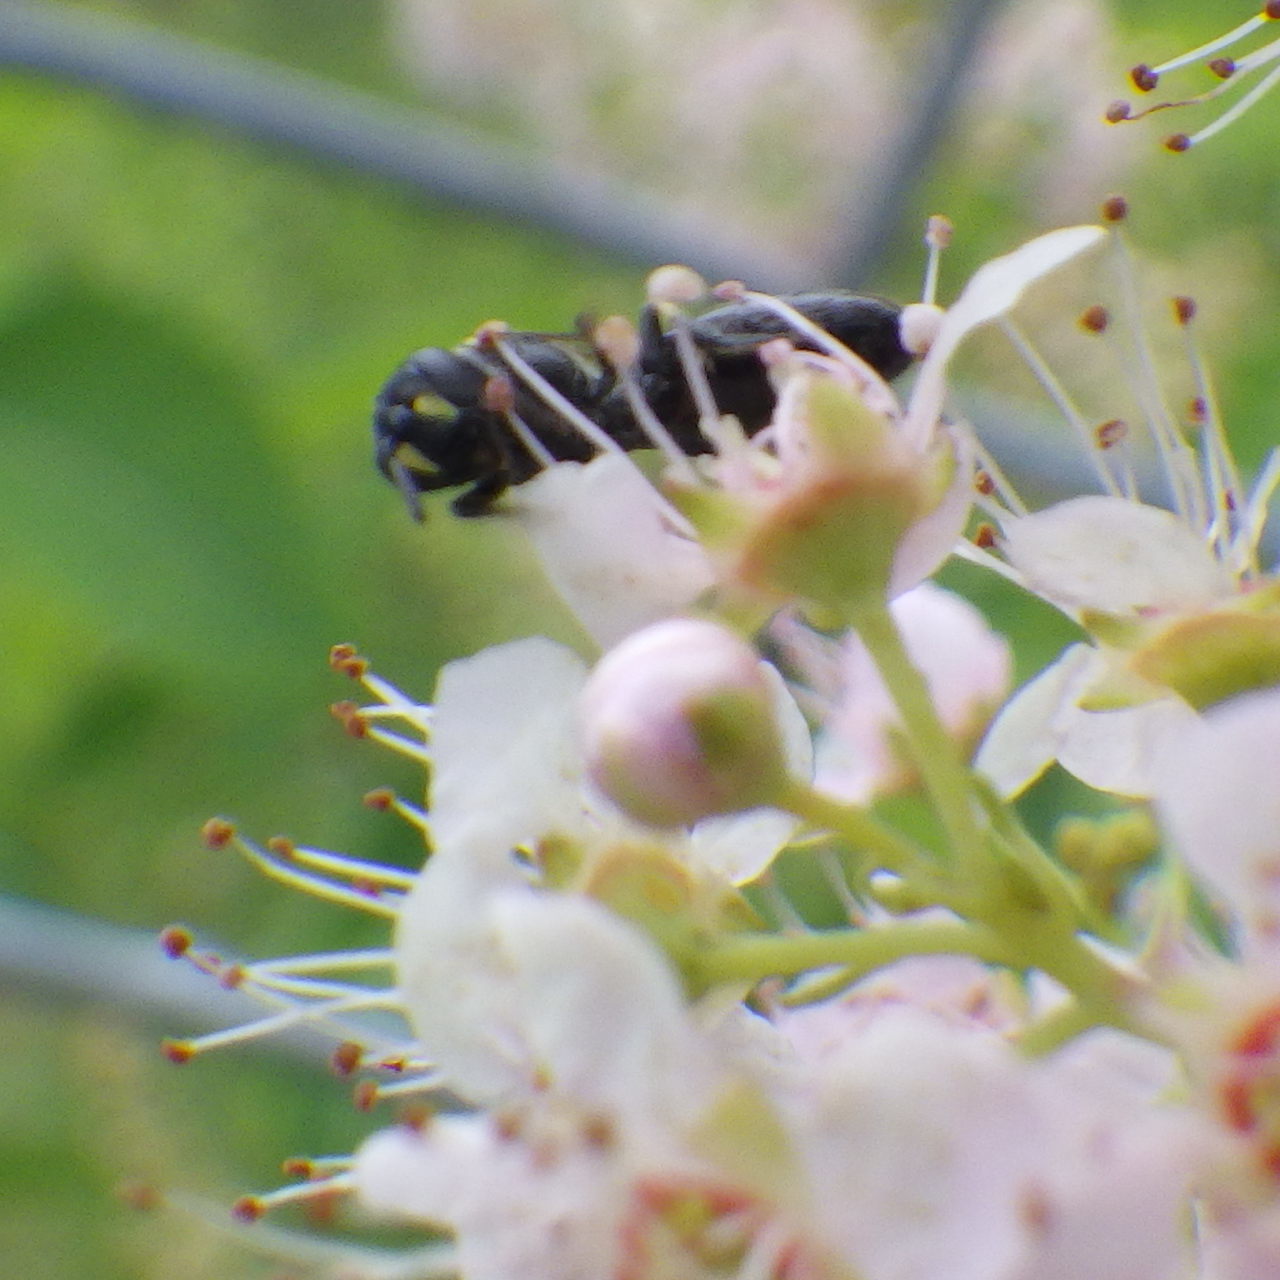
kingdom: Animalia
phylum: Arthropoda
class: Insecta
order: Hymenoptera
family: Colletidae
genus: Hylaeus
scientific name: Hylaeus modestus
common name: Yellow-faced bee
